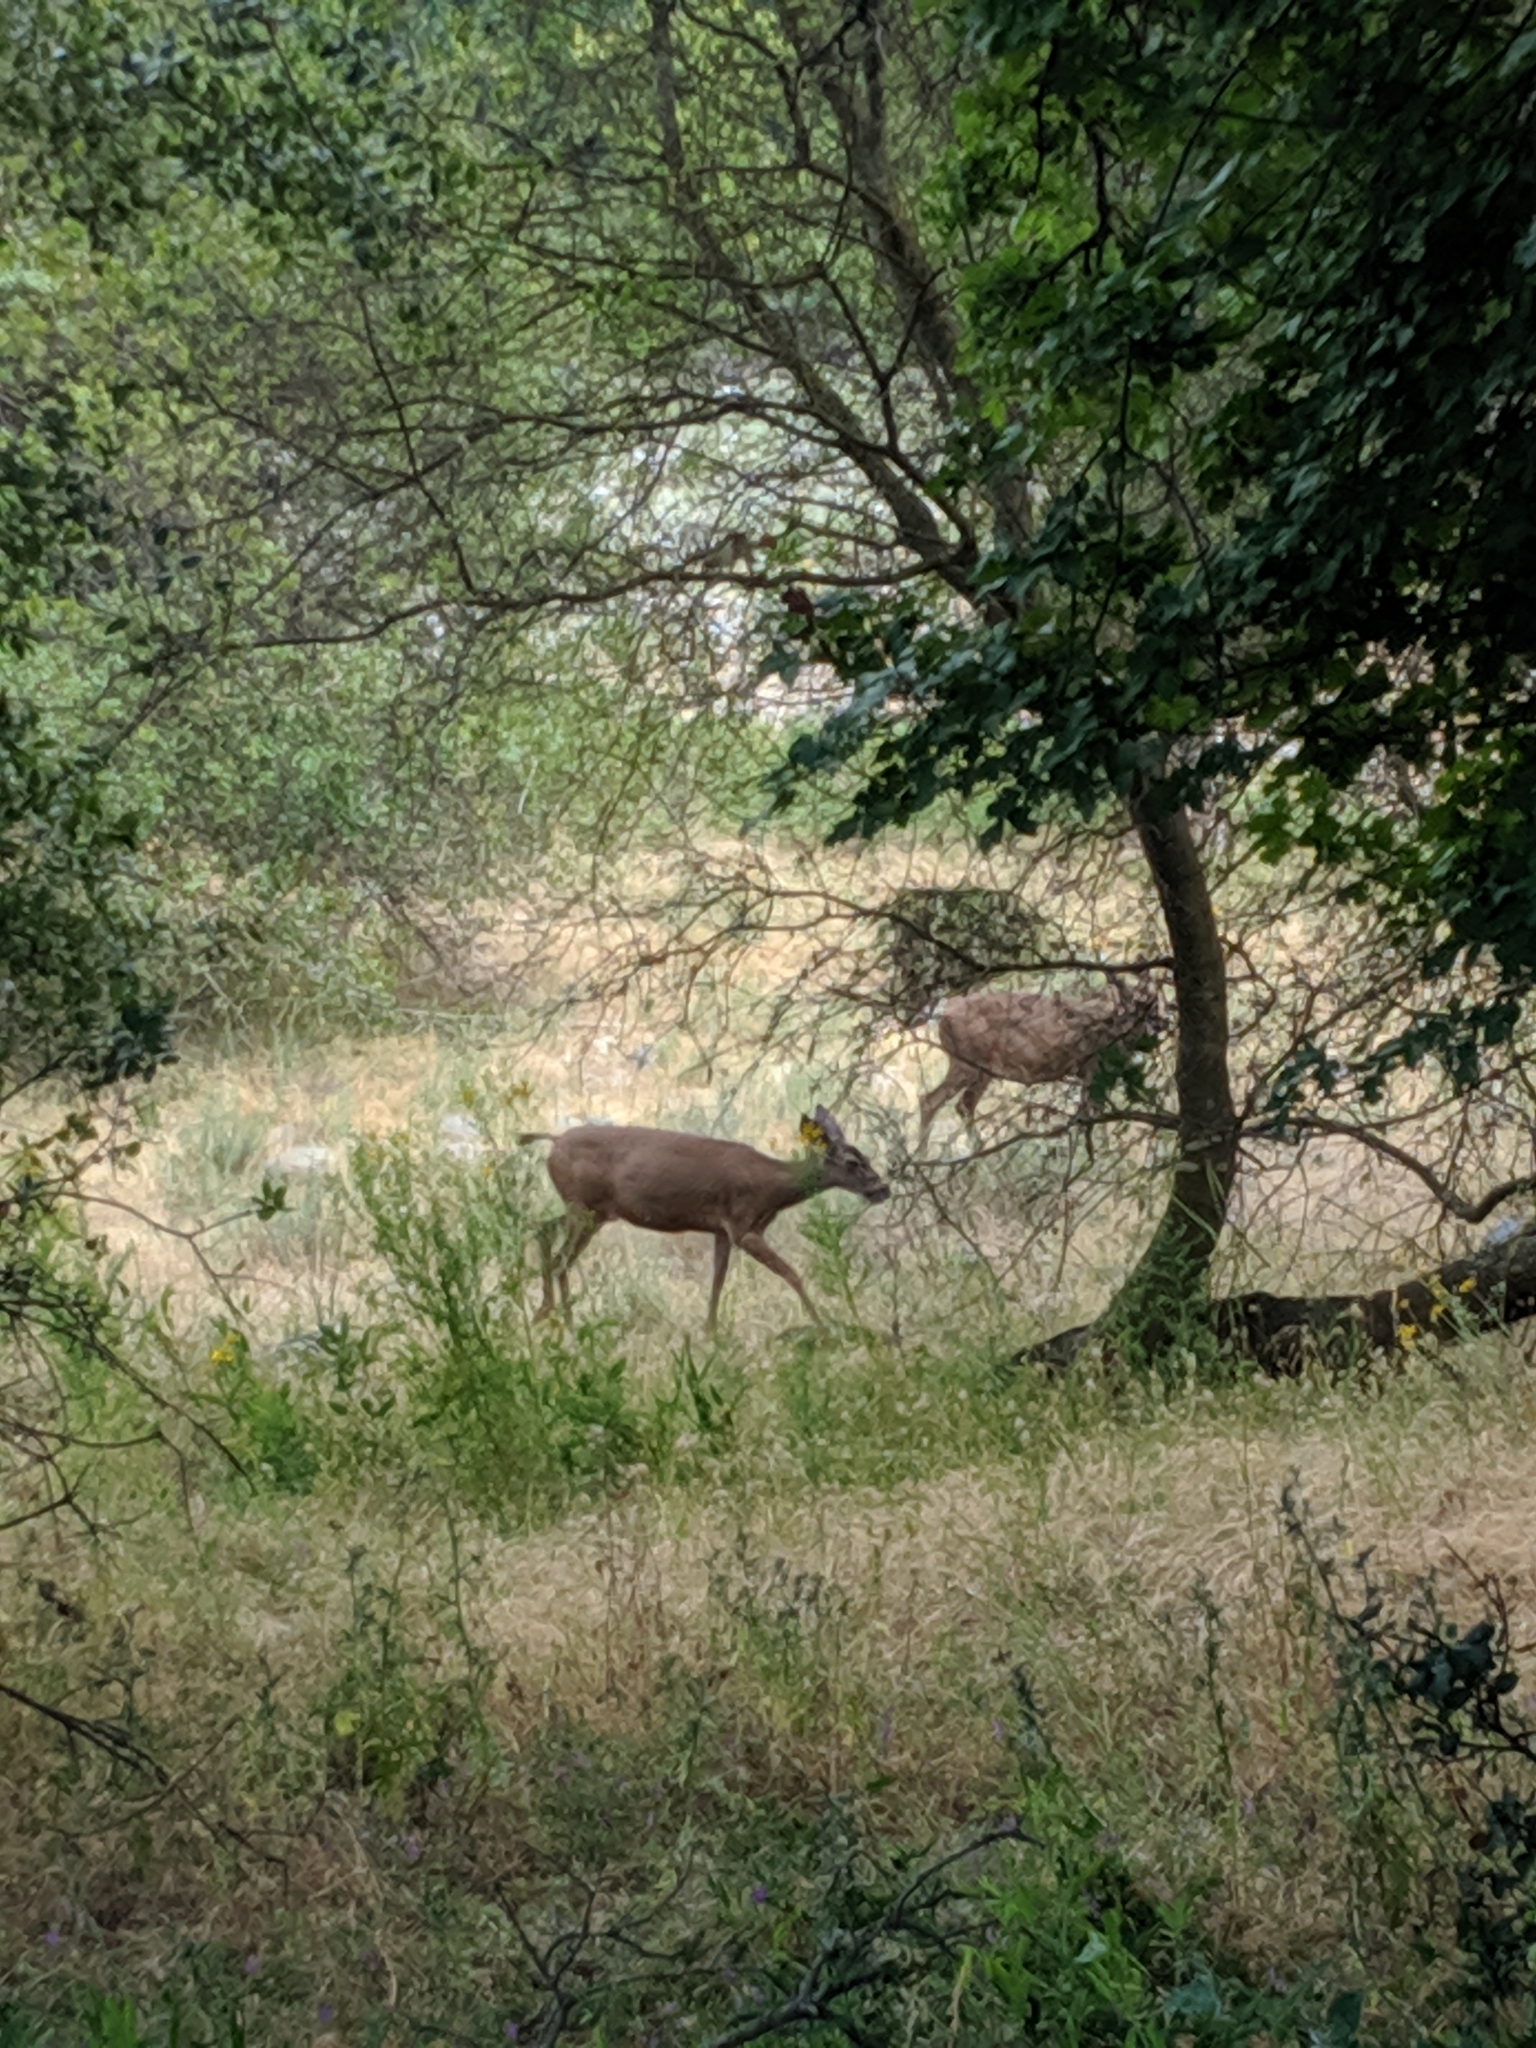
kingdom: Animalia
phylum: Chordata
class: Mammalia
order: Artiodactyla
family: Cervidae
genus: Odocoileus
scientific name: Odocoileus hemionus
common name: Mule deer
